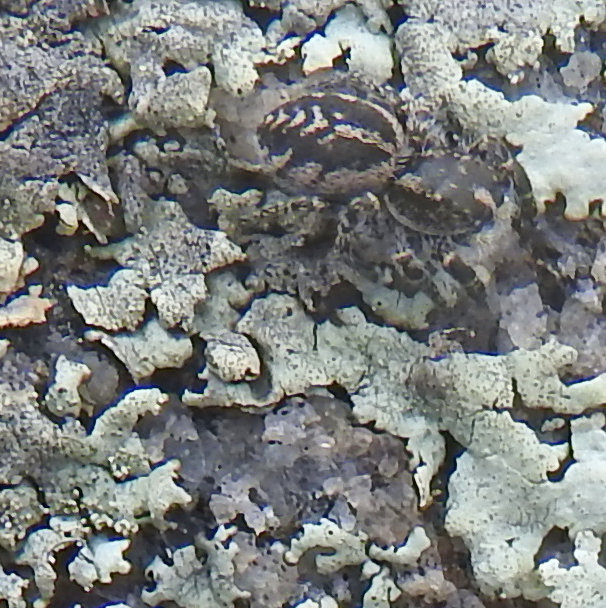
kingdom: Animalia
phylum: Arthropoda
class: Arachnida
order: Araneae
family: Salticidae
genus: Pellenes
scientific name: Pellenes peninsularis
